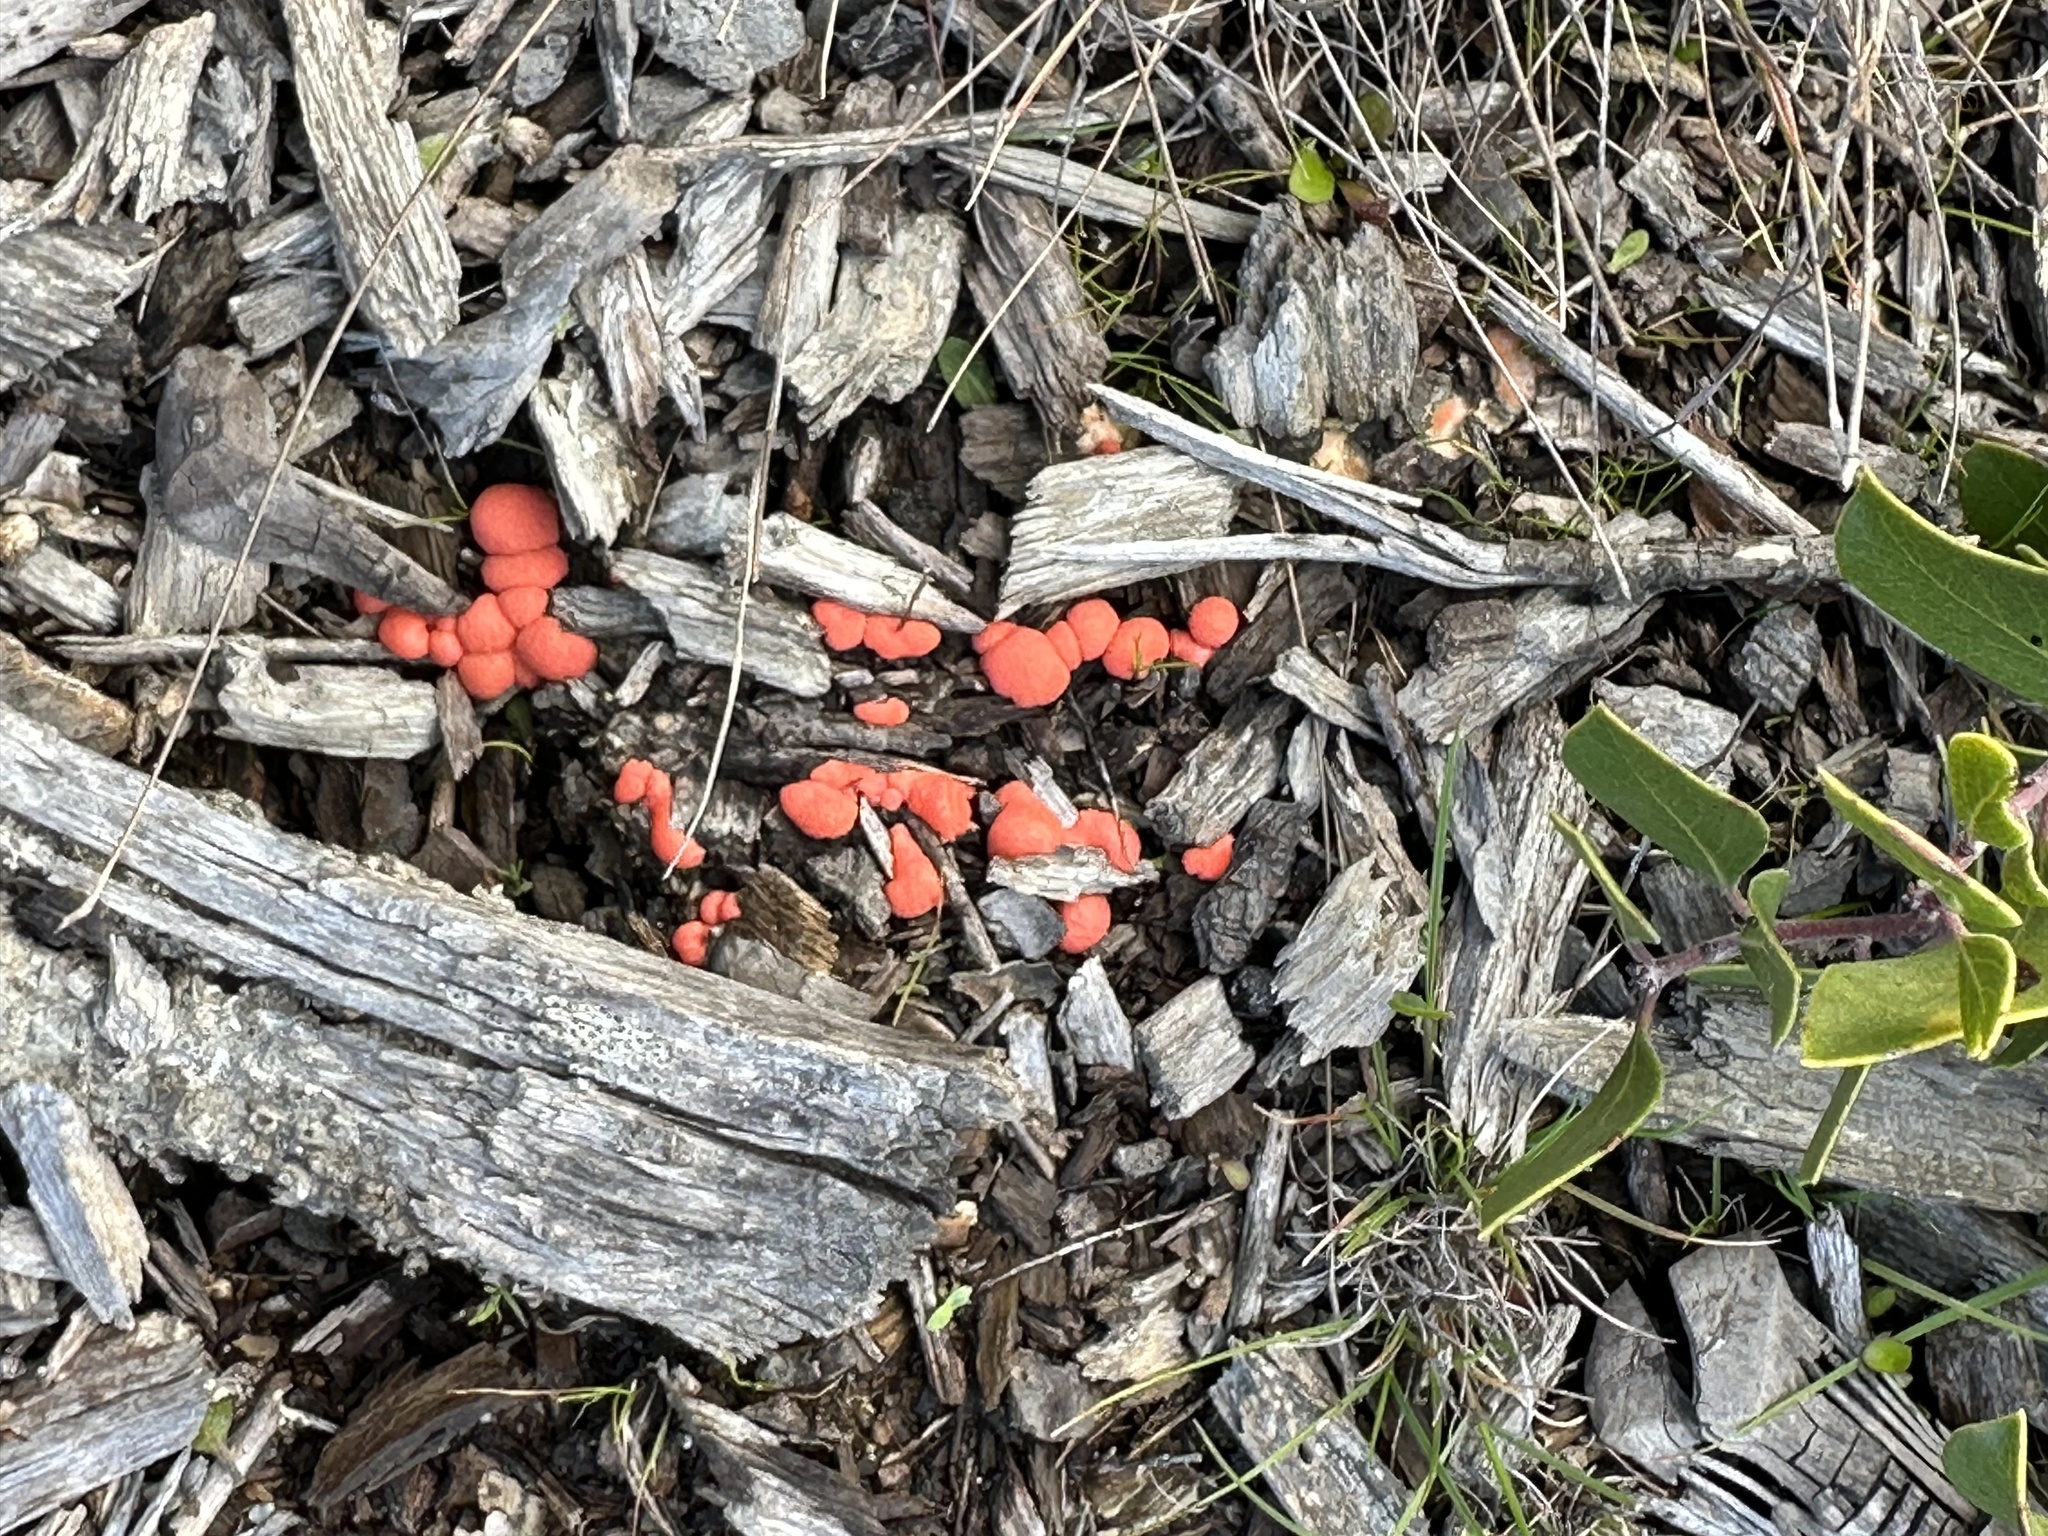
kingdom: Protozoa
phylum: Mycetozoa
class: Myxomycetes
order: Cribrariales
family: Tubiferaceae
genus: Lycogala
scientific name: Lycogala epidendrum
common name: Wolf's milk
